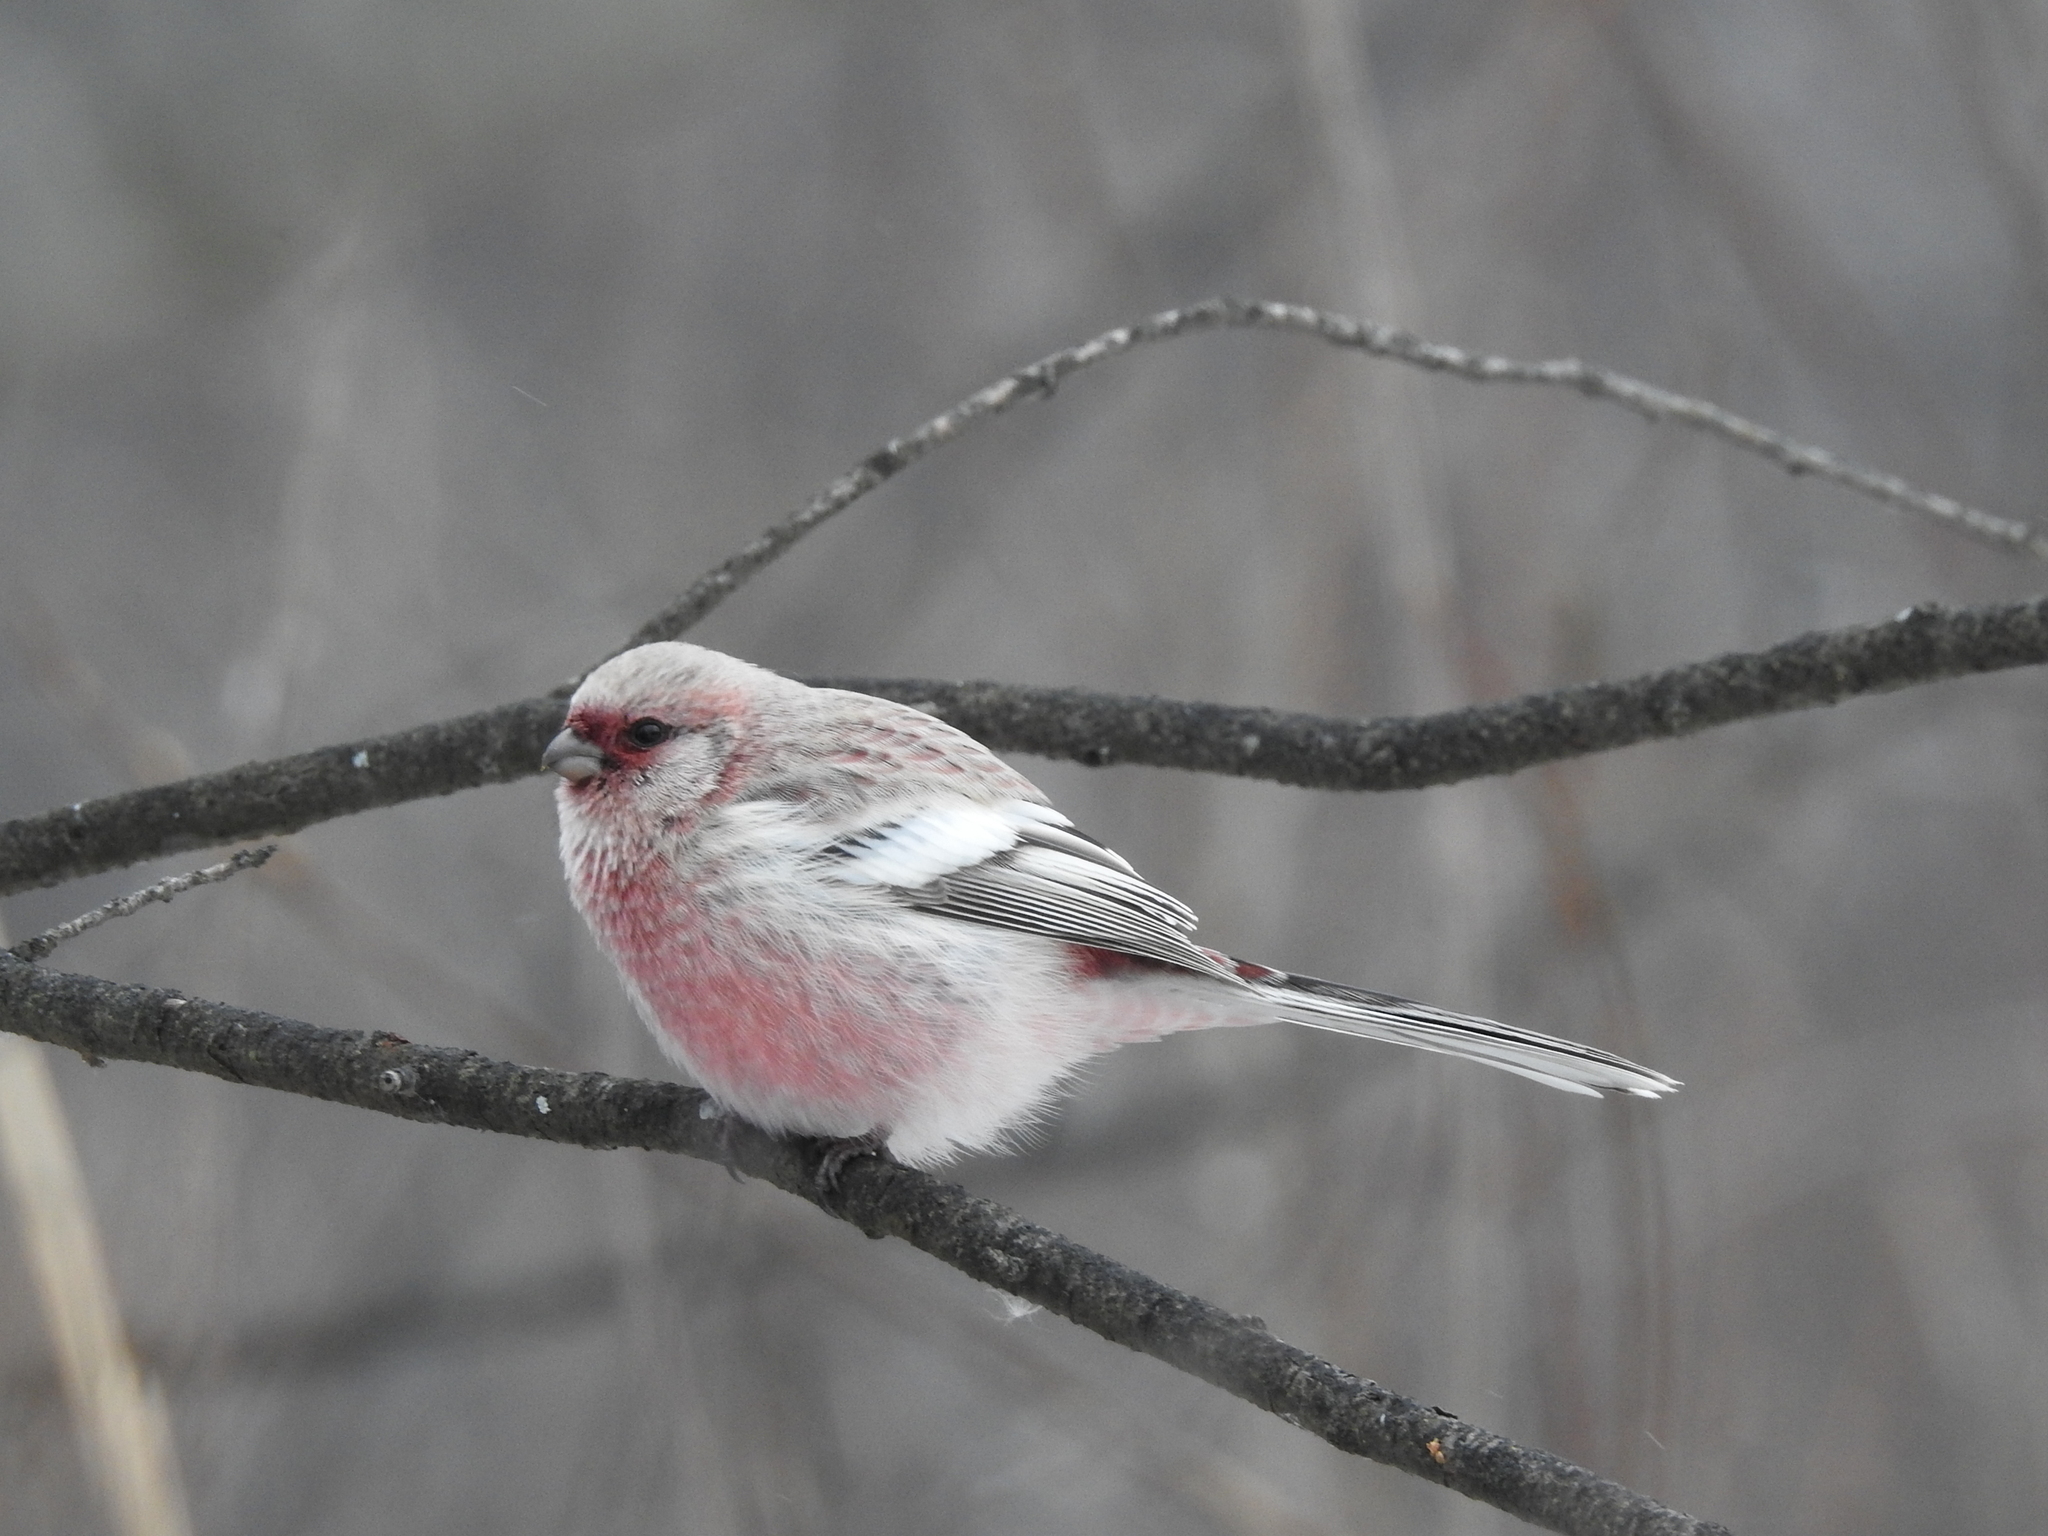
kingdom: Animalia
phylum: Chordata
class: Aves
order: Passeriformes
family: Fringillidae
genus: Carpodacus
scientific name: Carpodacus sibiricus
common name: Long-tailed rosefinch
